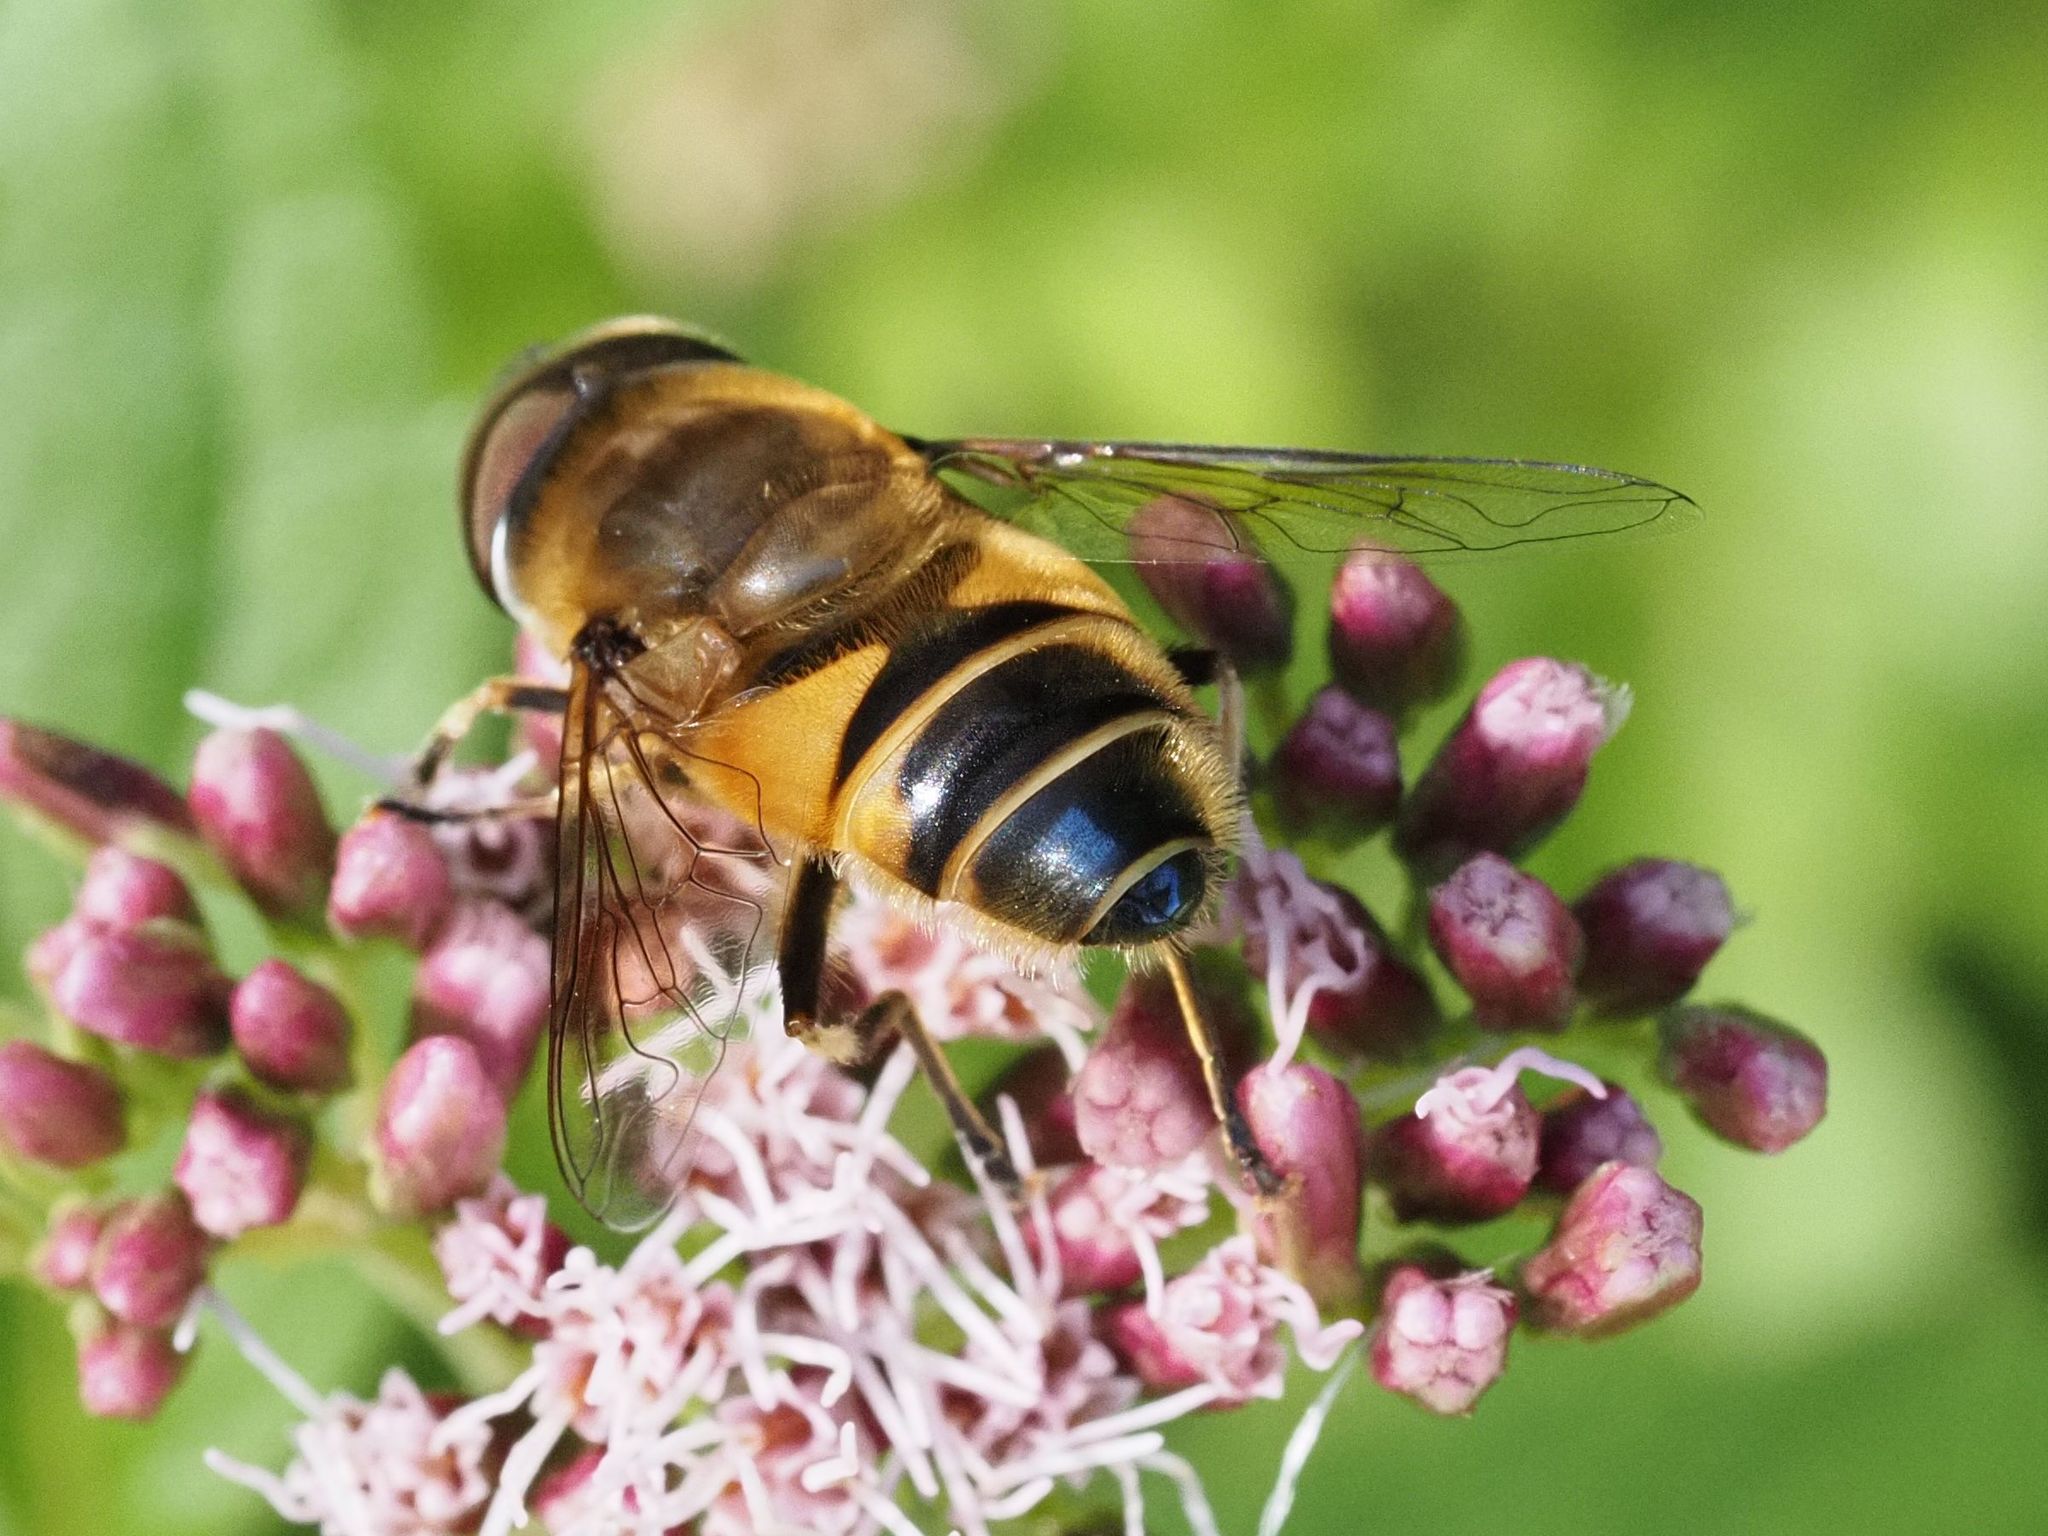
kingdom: Animalia
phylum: Arthropoda
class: Insecta
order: Diptera
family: Syrphidae
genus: Eristalis
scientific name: Eristalis pertinax
